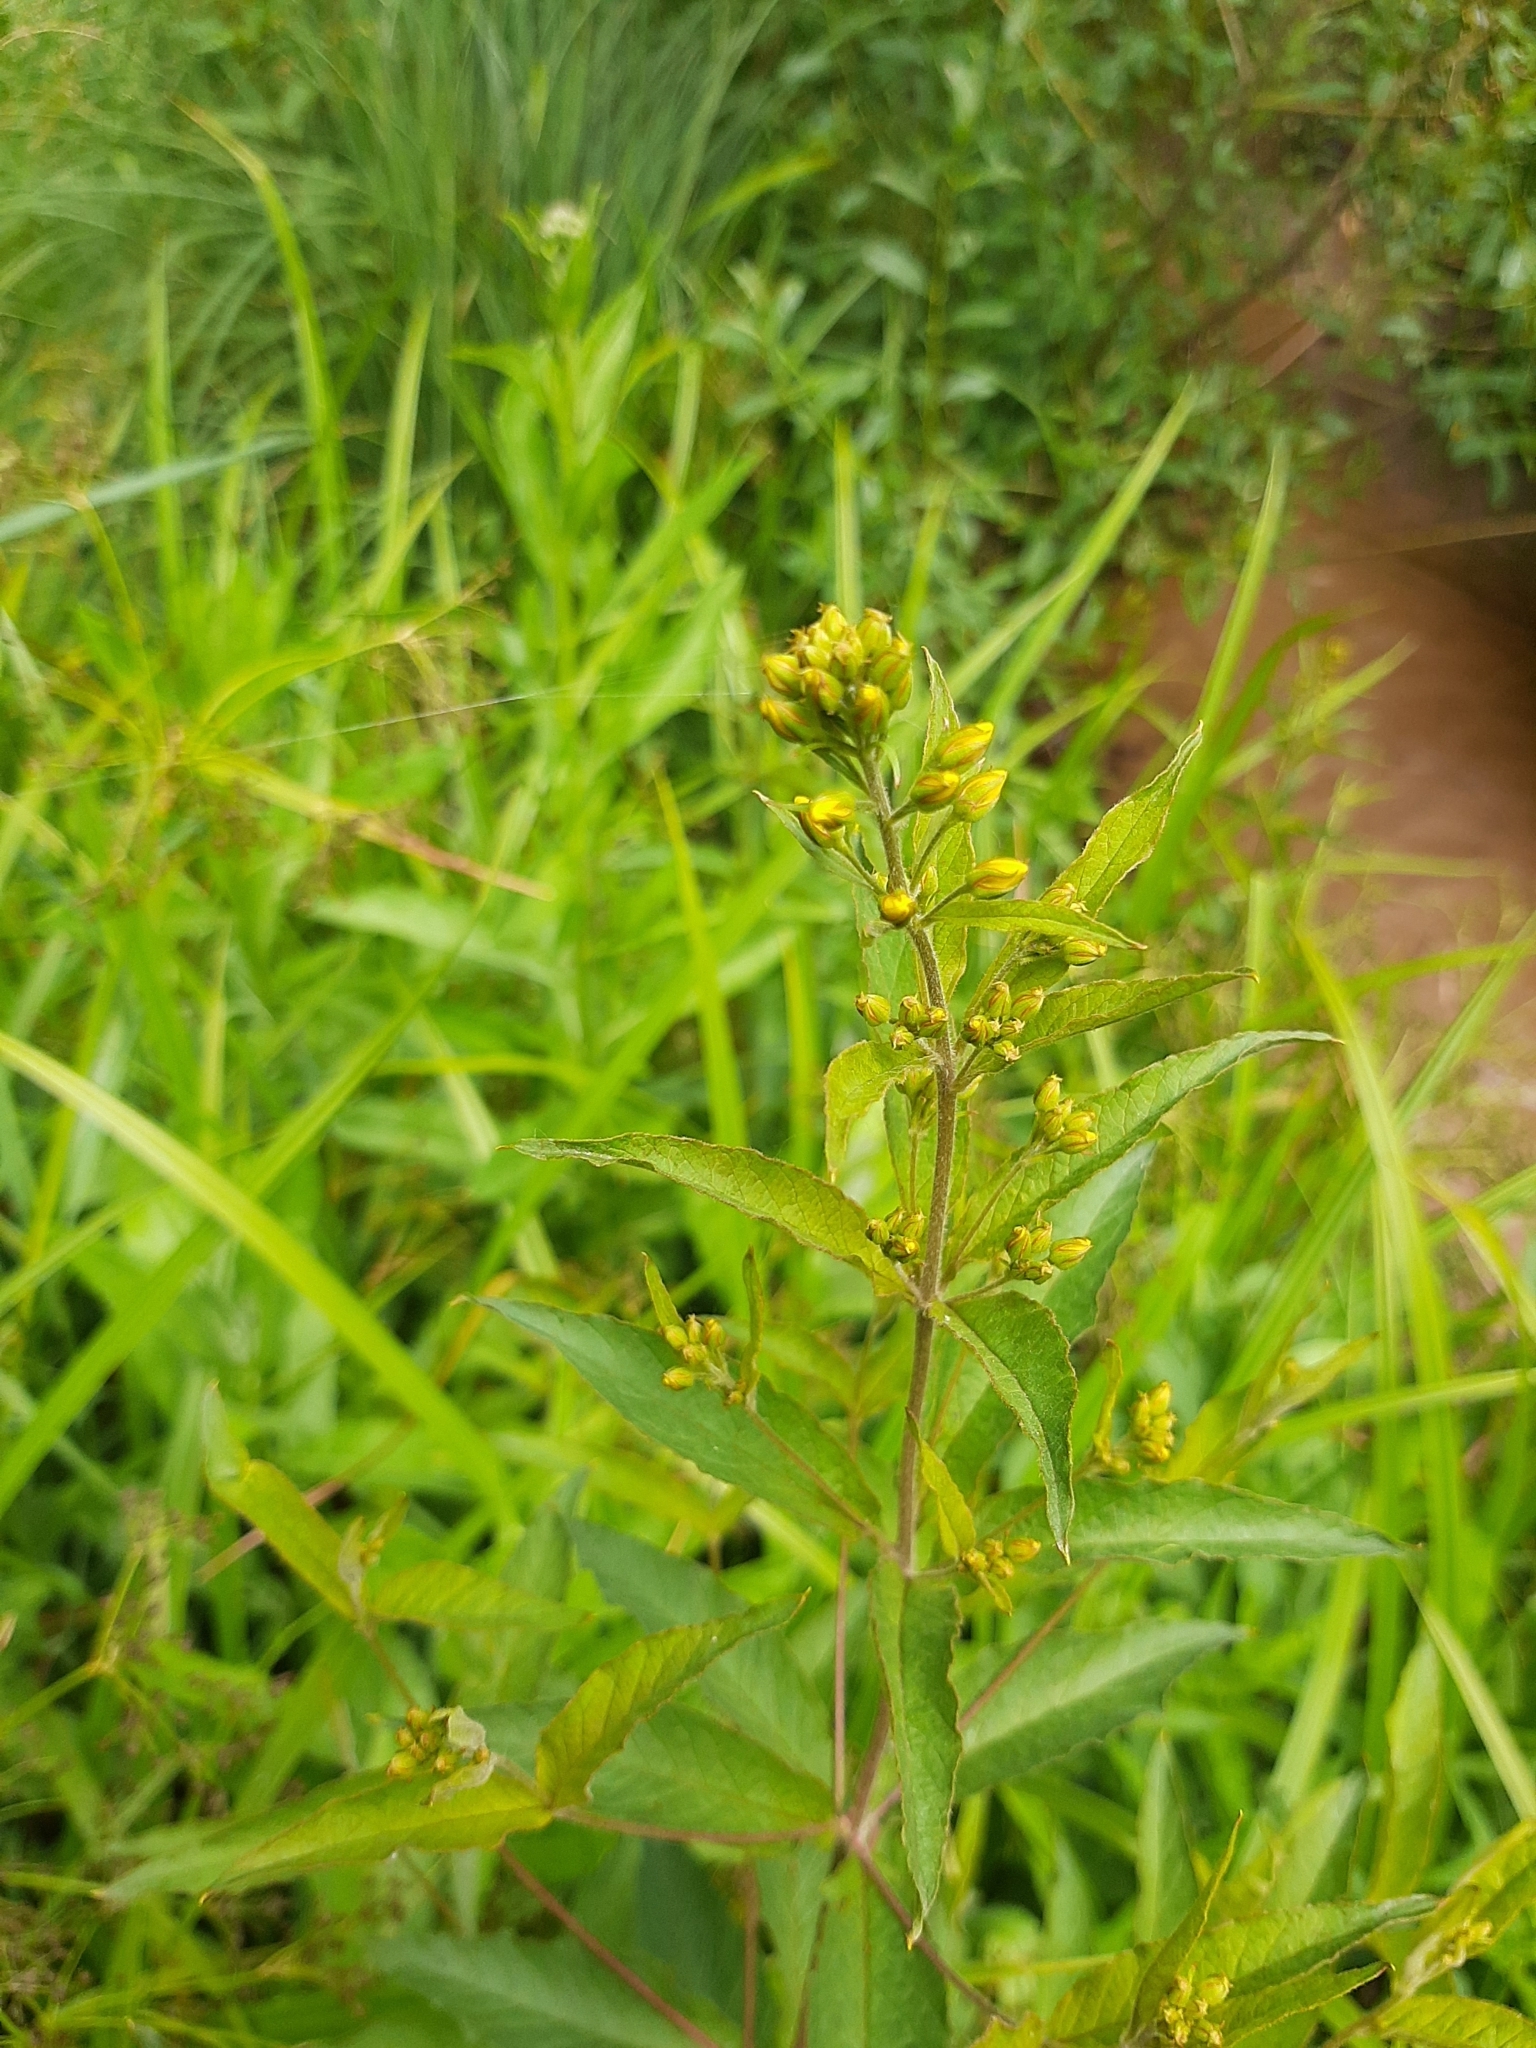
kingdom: Plantae
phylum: Tracheophyta
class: Magnoliopsida
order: Ericales
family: Primulaceae
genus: Lysimachia
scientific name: Lysimachia vulgaris
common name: Yellow loosestrife
